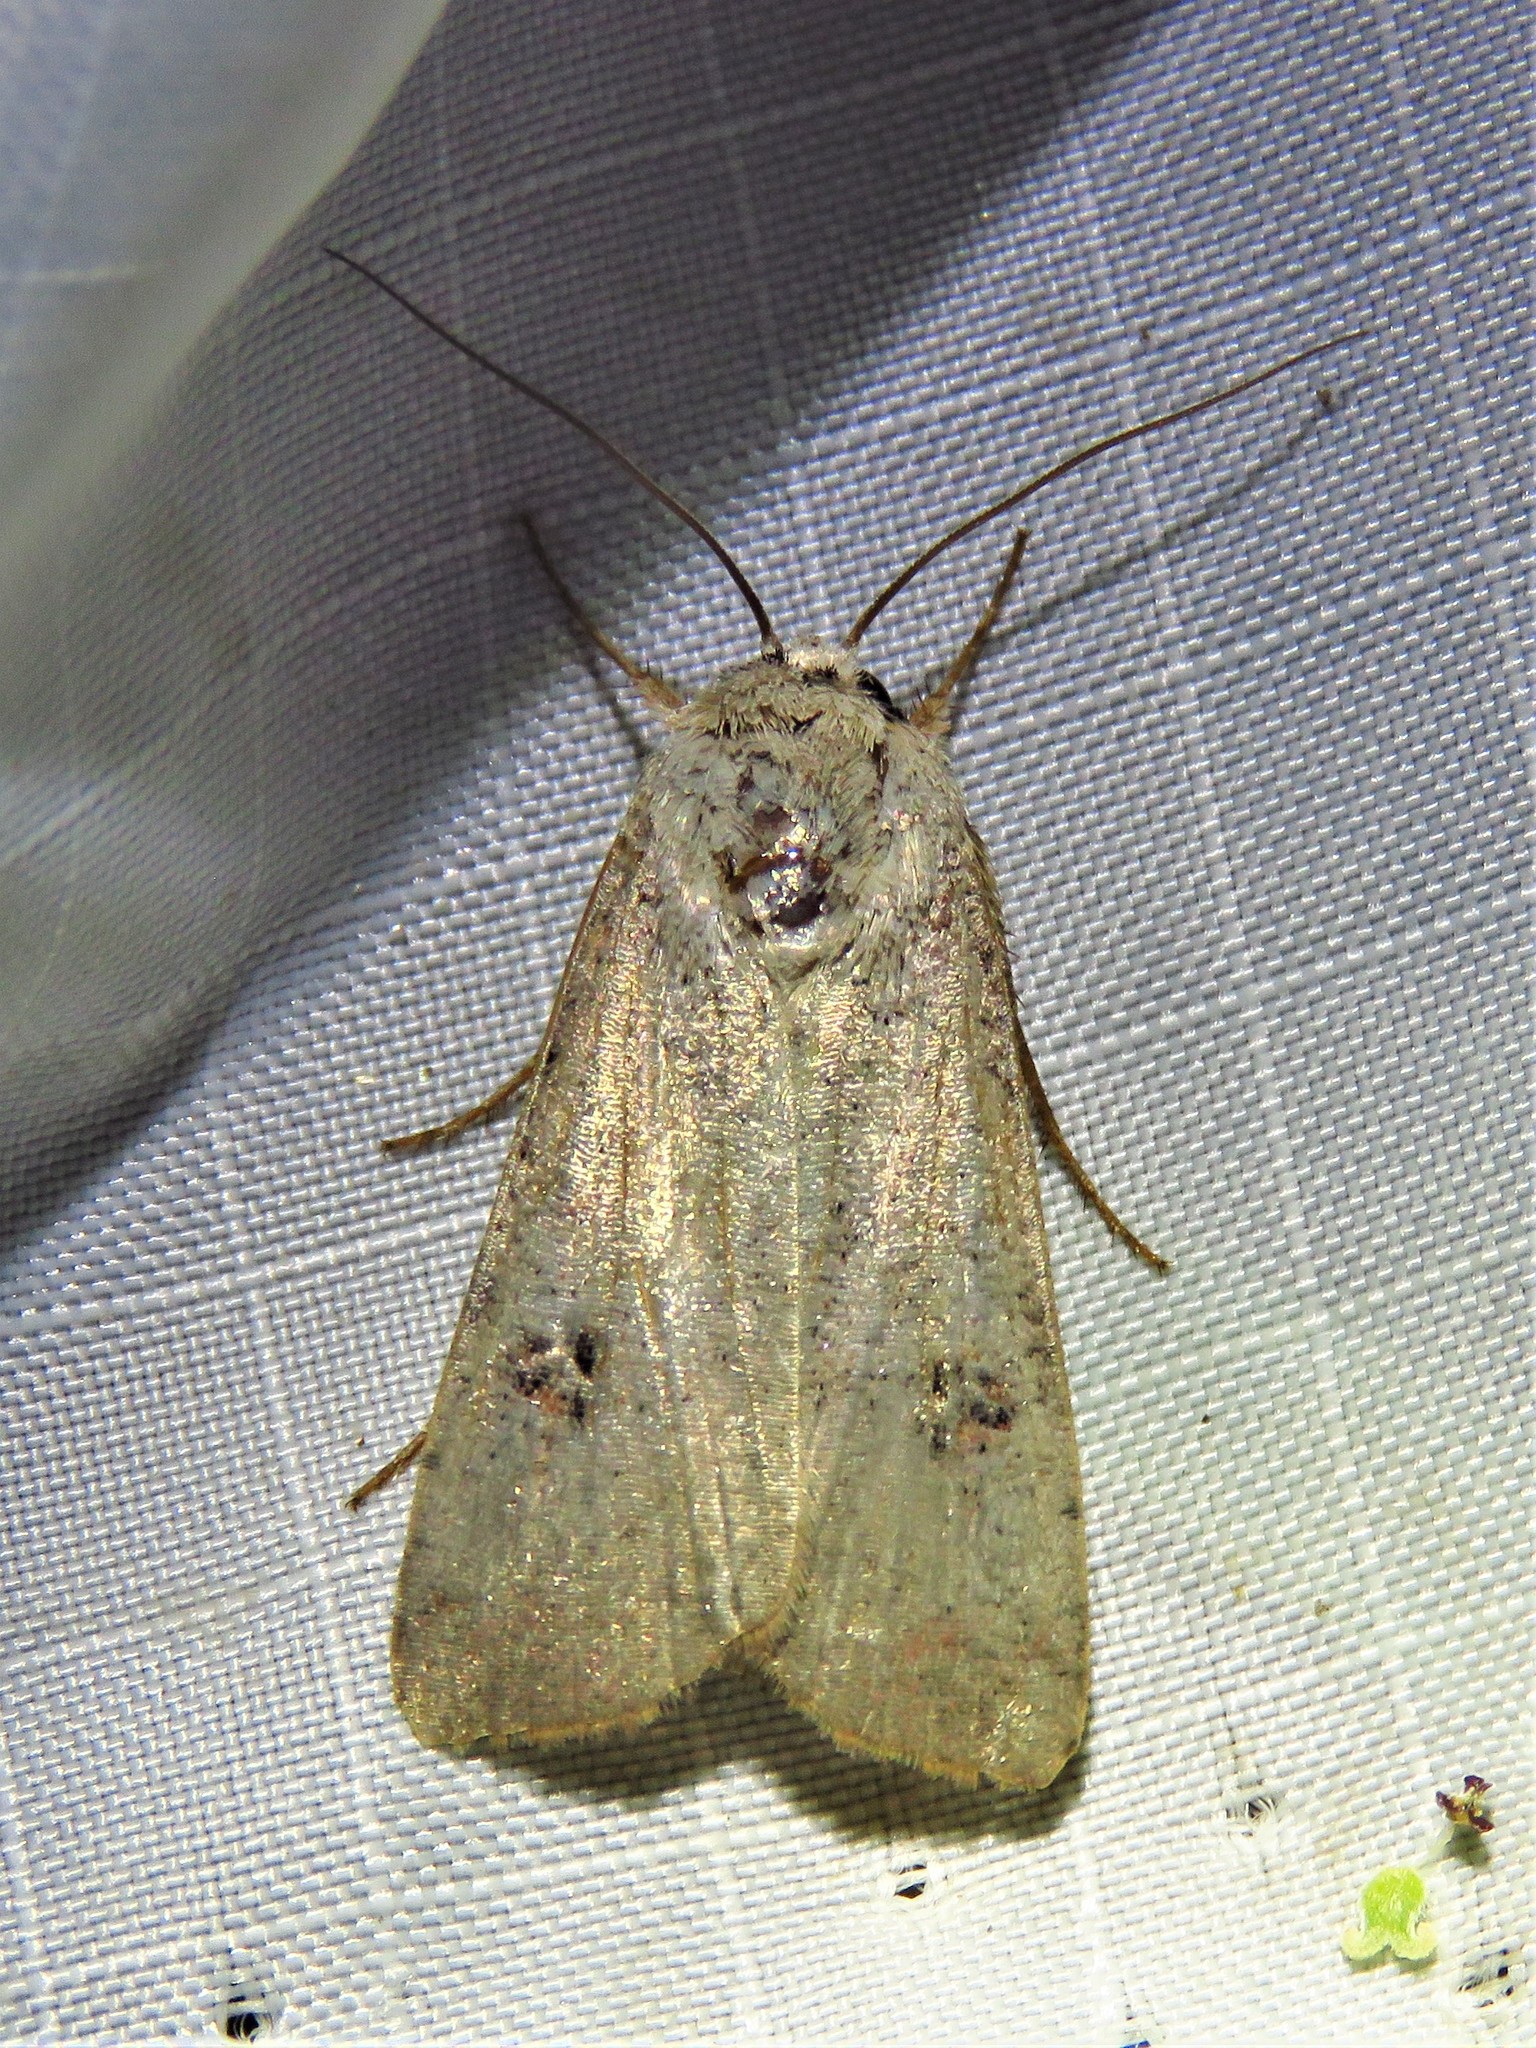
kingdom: Animalia
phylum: Arthropoda
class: Insecta
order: Lepidoptera
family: Noctuidae
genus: Anicla
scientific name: Anicla infecta
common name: Green cutworm
